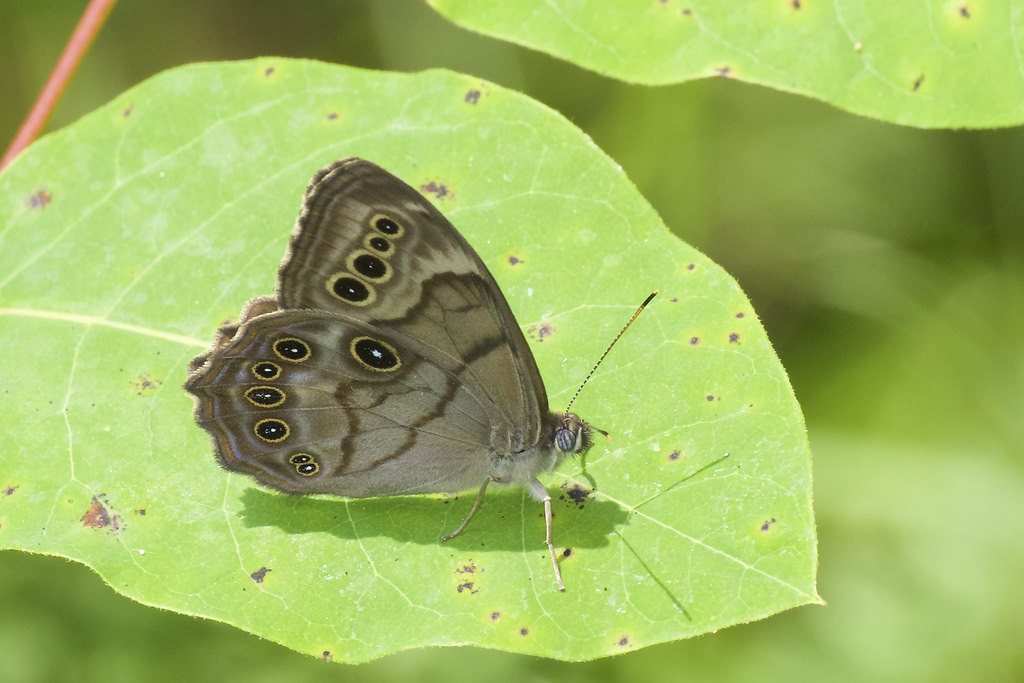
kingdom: Animalia
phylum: Arthropoda
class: Insecta
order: Lepidoptera
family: Nymphalidae
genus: Lethe
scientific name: Lethe anthedon
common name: Northern pearly-eye
